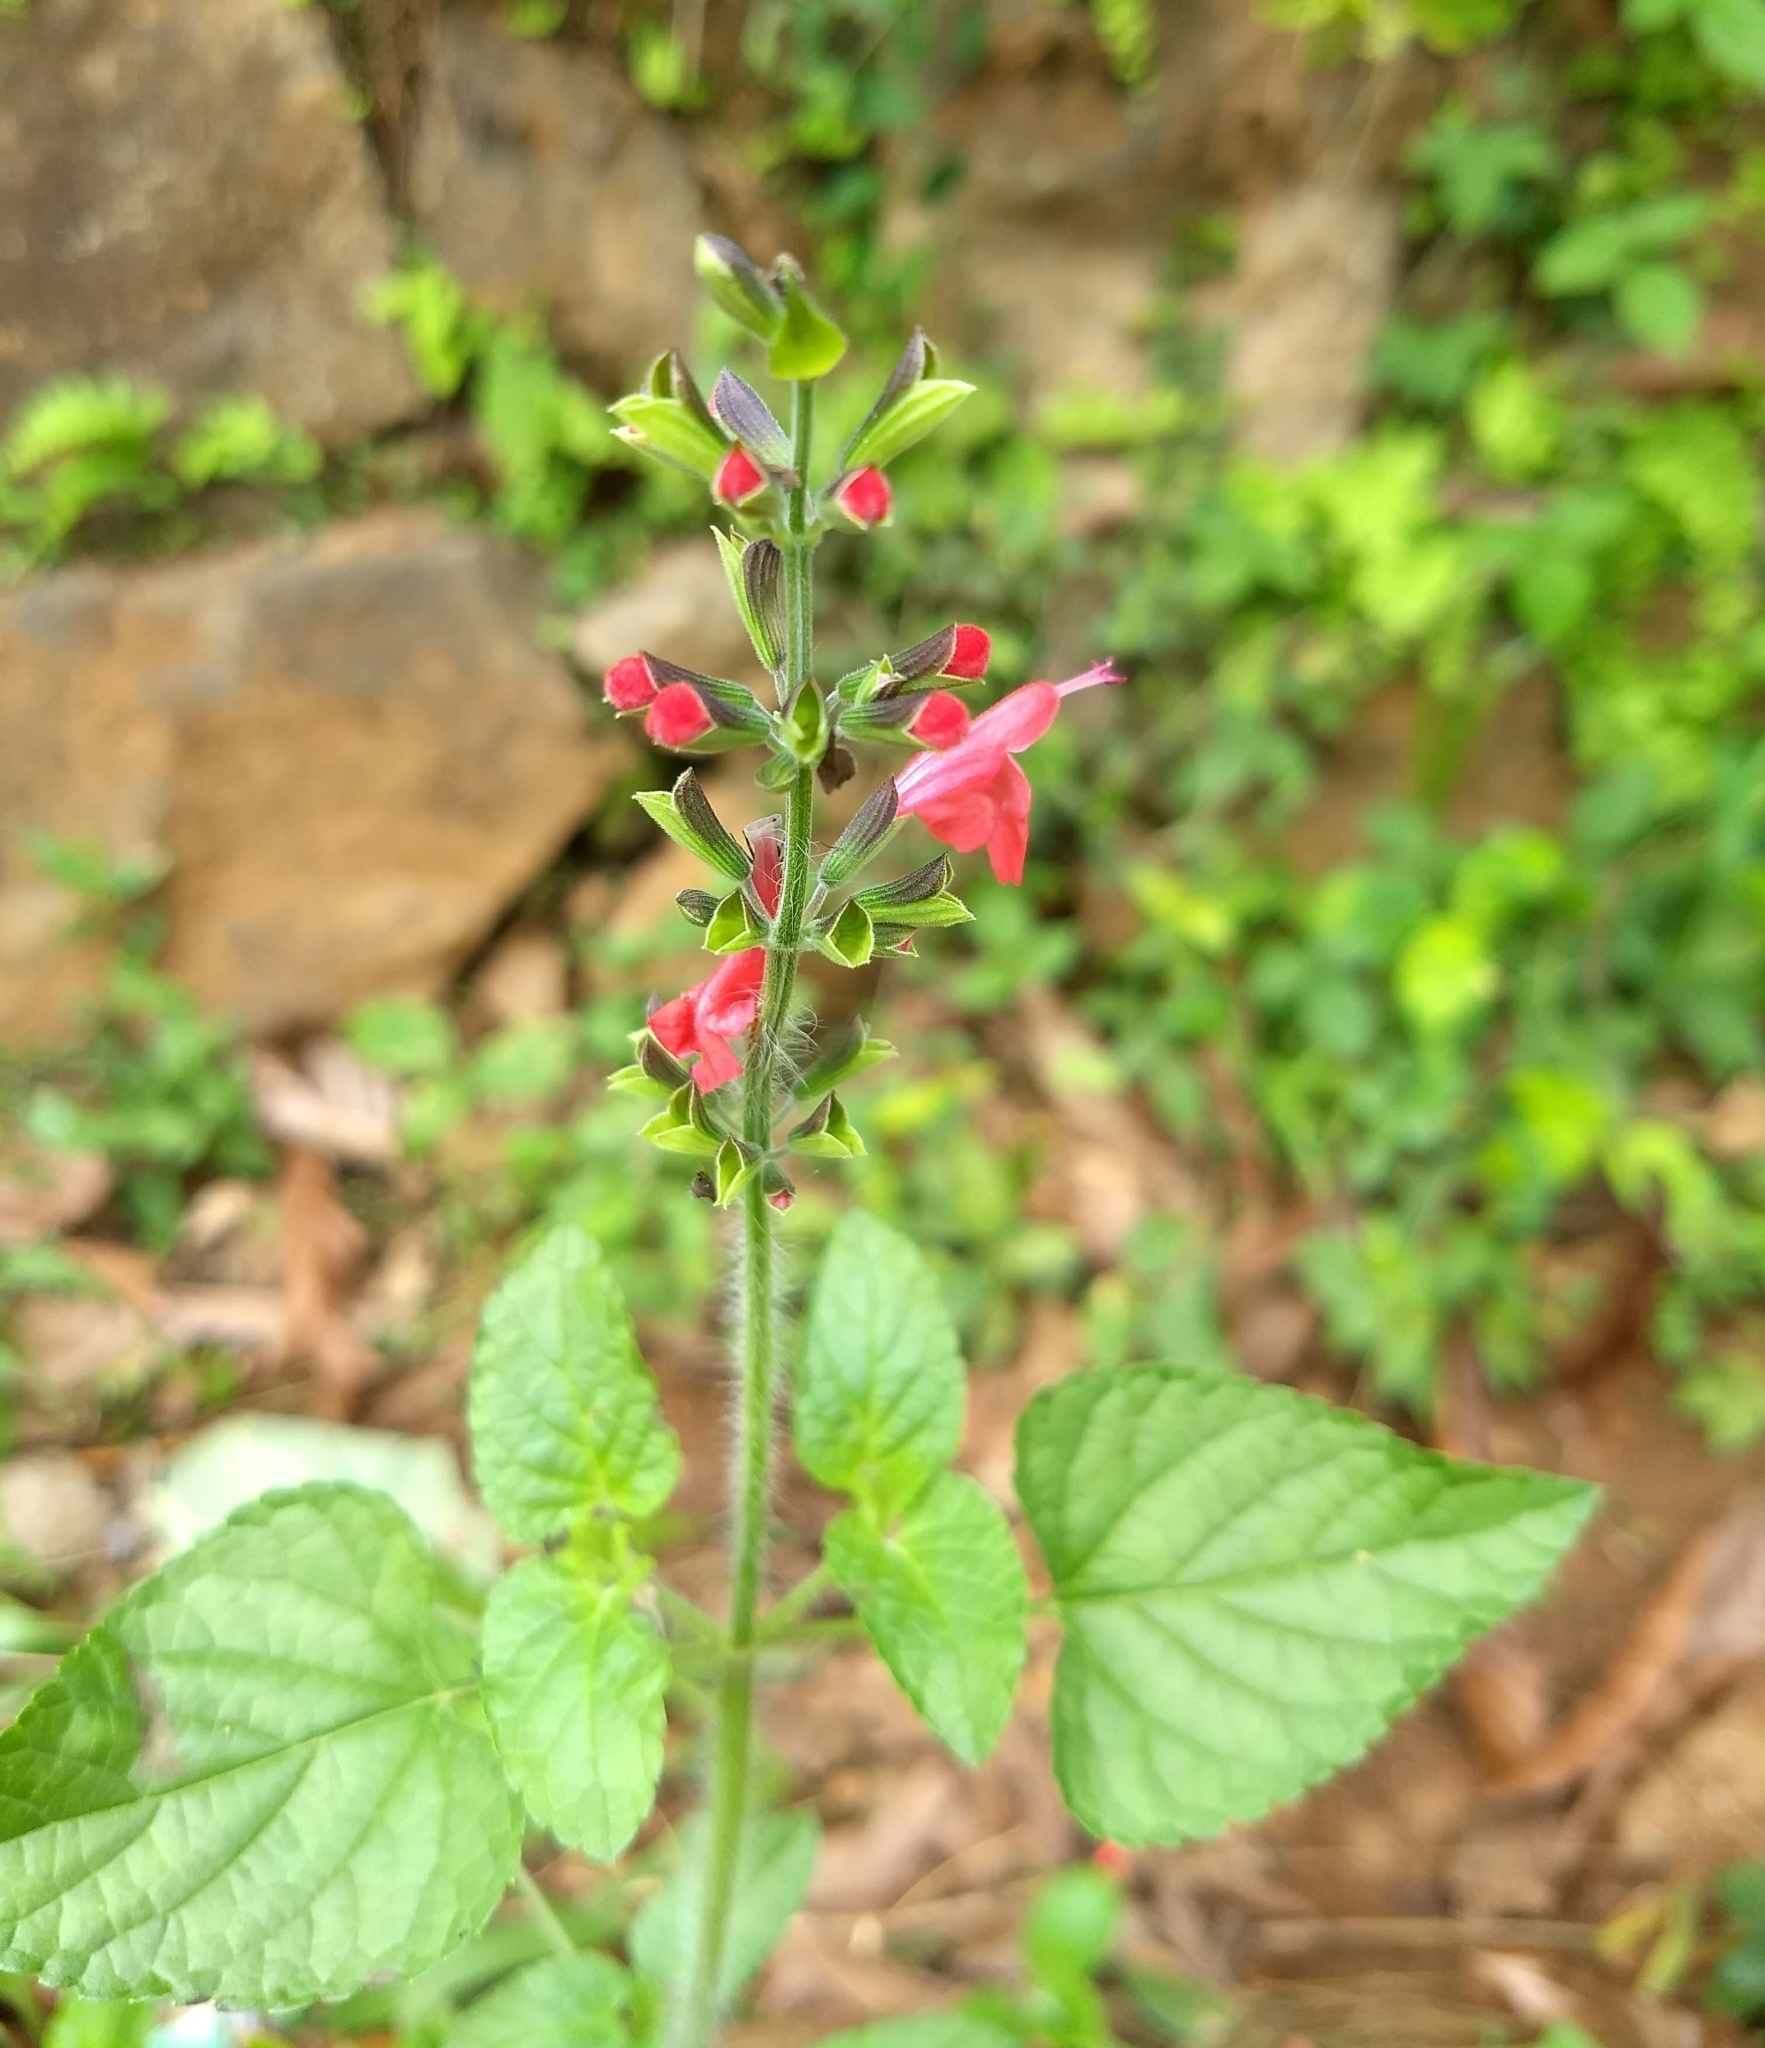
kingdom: Plantae
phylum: Tracheophyta
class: Magnoliopsida
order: Lamiales
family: Lamiaceae
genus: Salvia
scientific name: Salvia coccinea
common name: Blood sage
